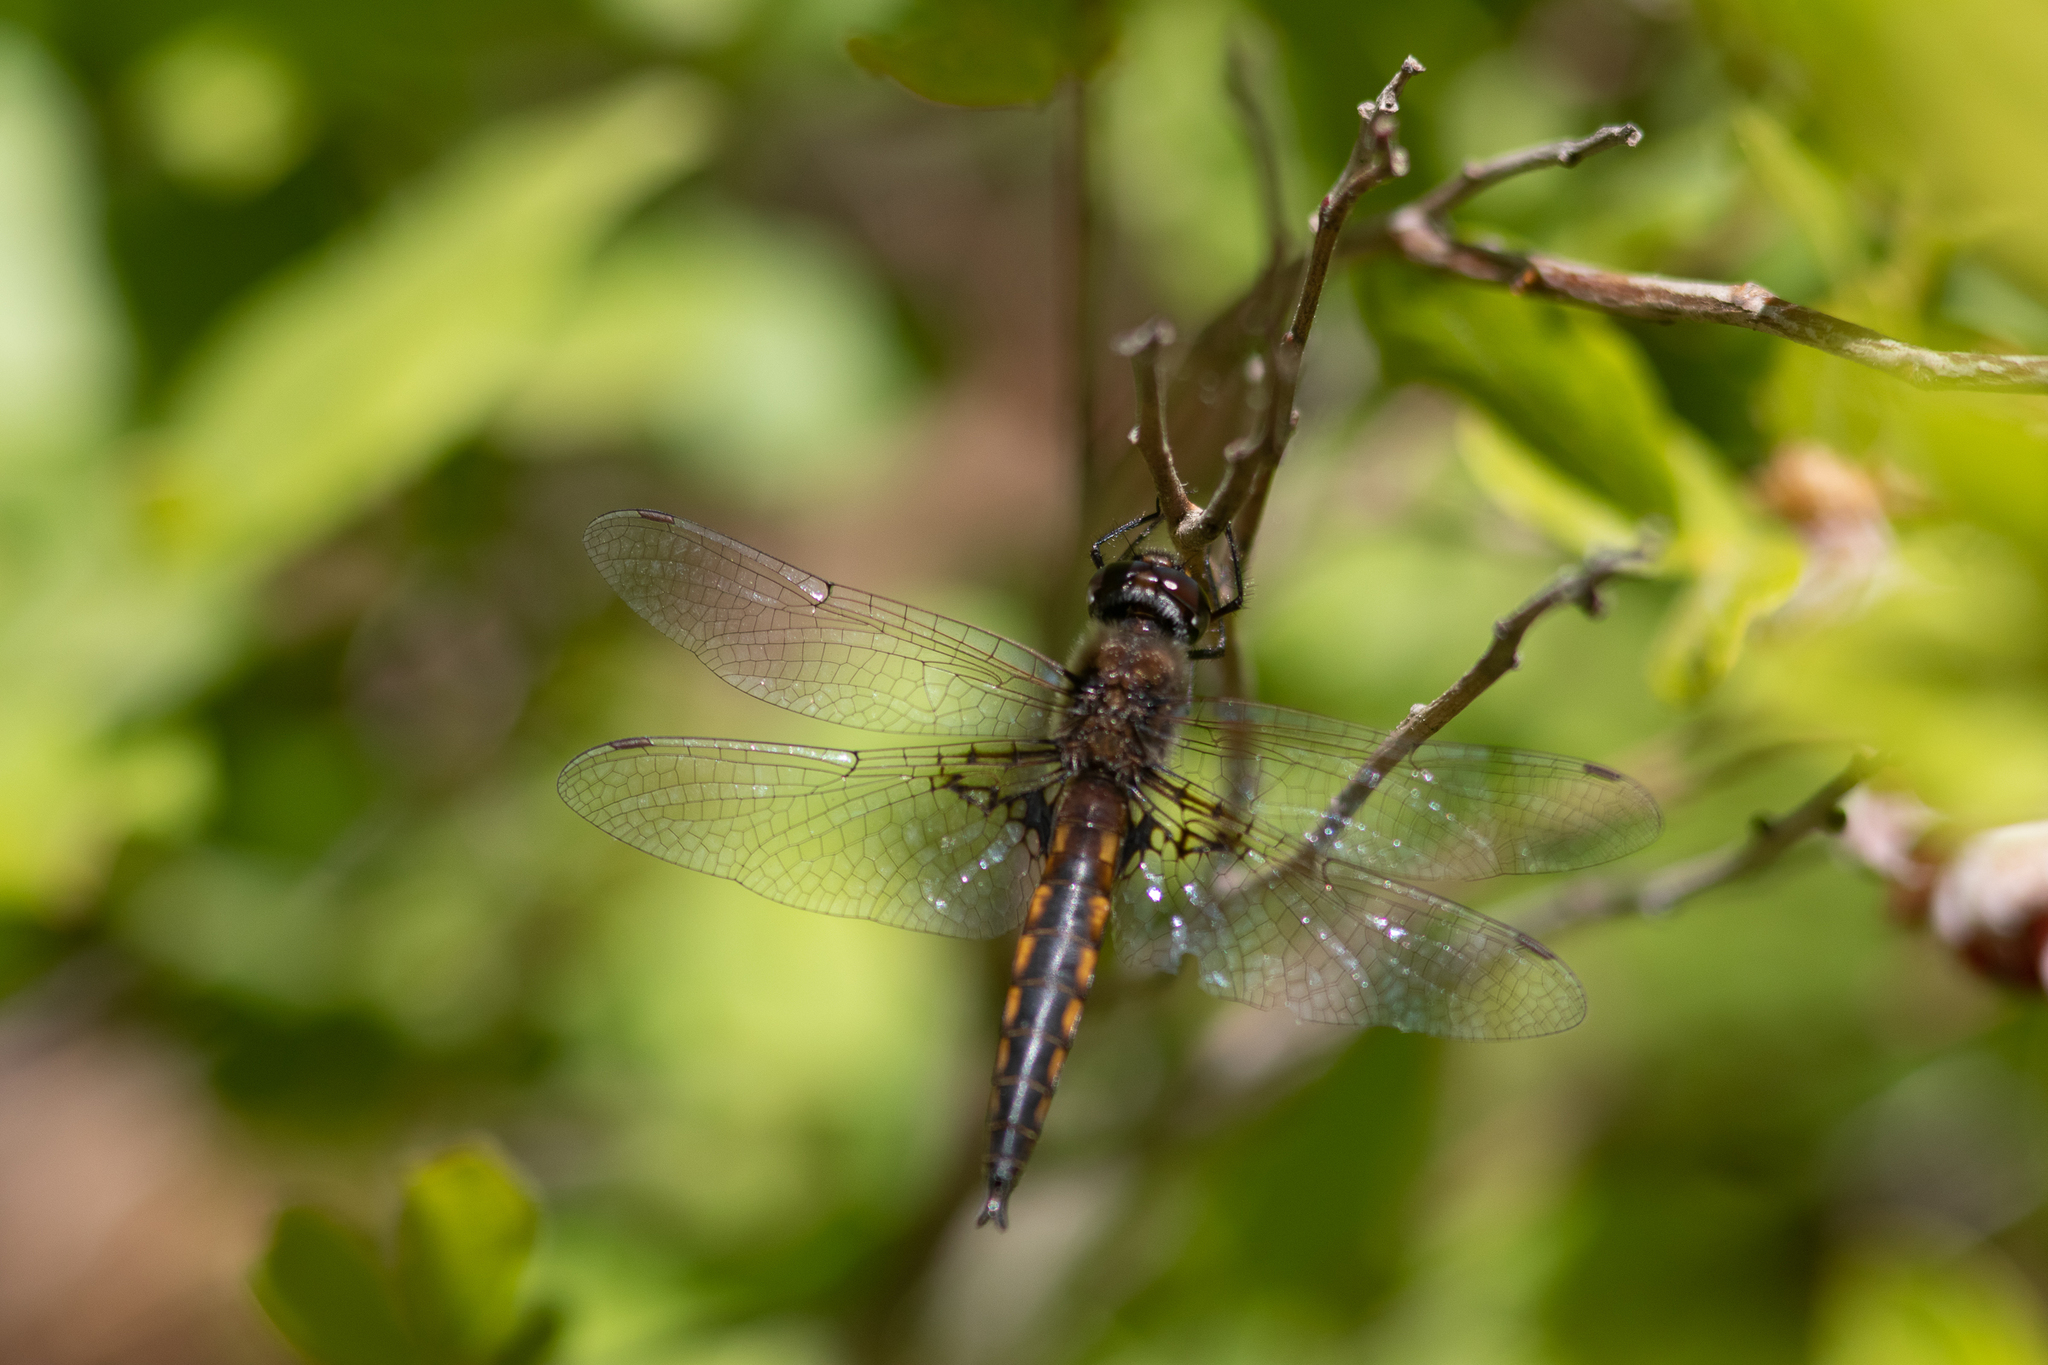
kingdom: Animalia
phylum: Arthropoda
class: Insecta
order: Odonata
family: Corduliidae
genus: Epitheca
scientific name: Epitheca semiaquea
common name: Mantled baskettail
